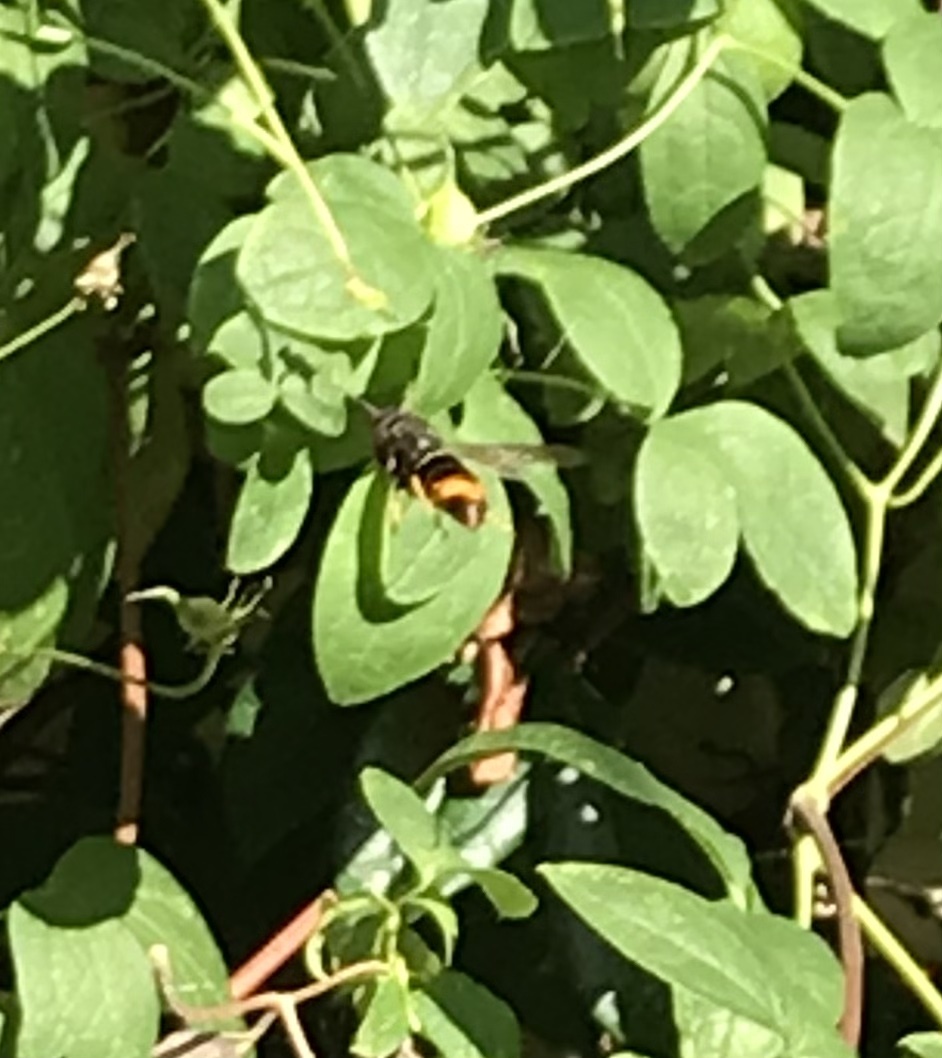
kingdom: Animalia
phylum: Arthropoda
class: Insecta
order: Hymenoptera
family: Vespidae
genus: Vespa
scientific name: Vespa velutina
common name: Asian hornet
